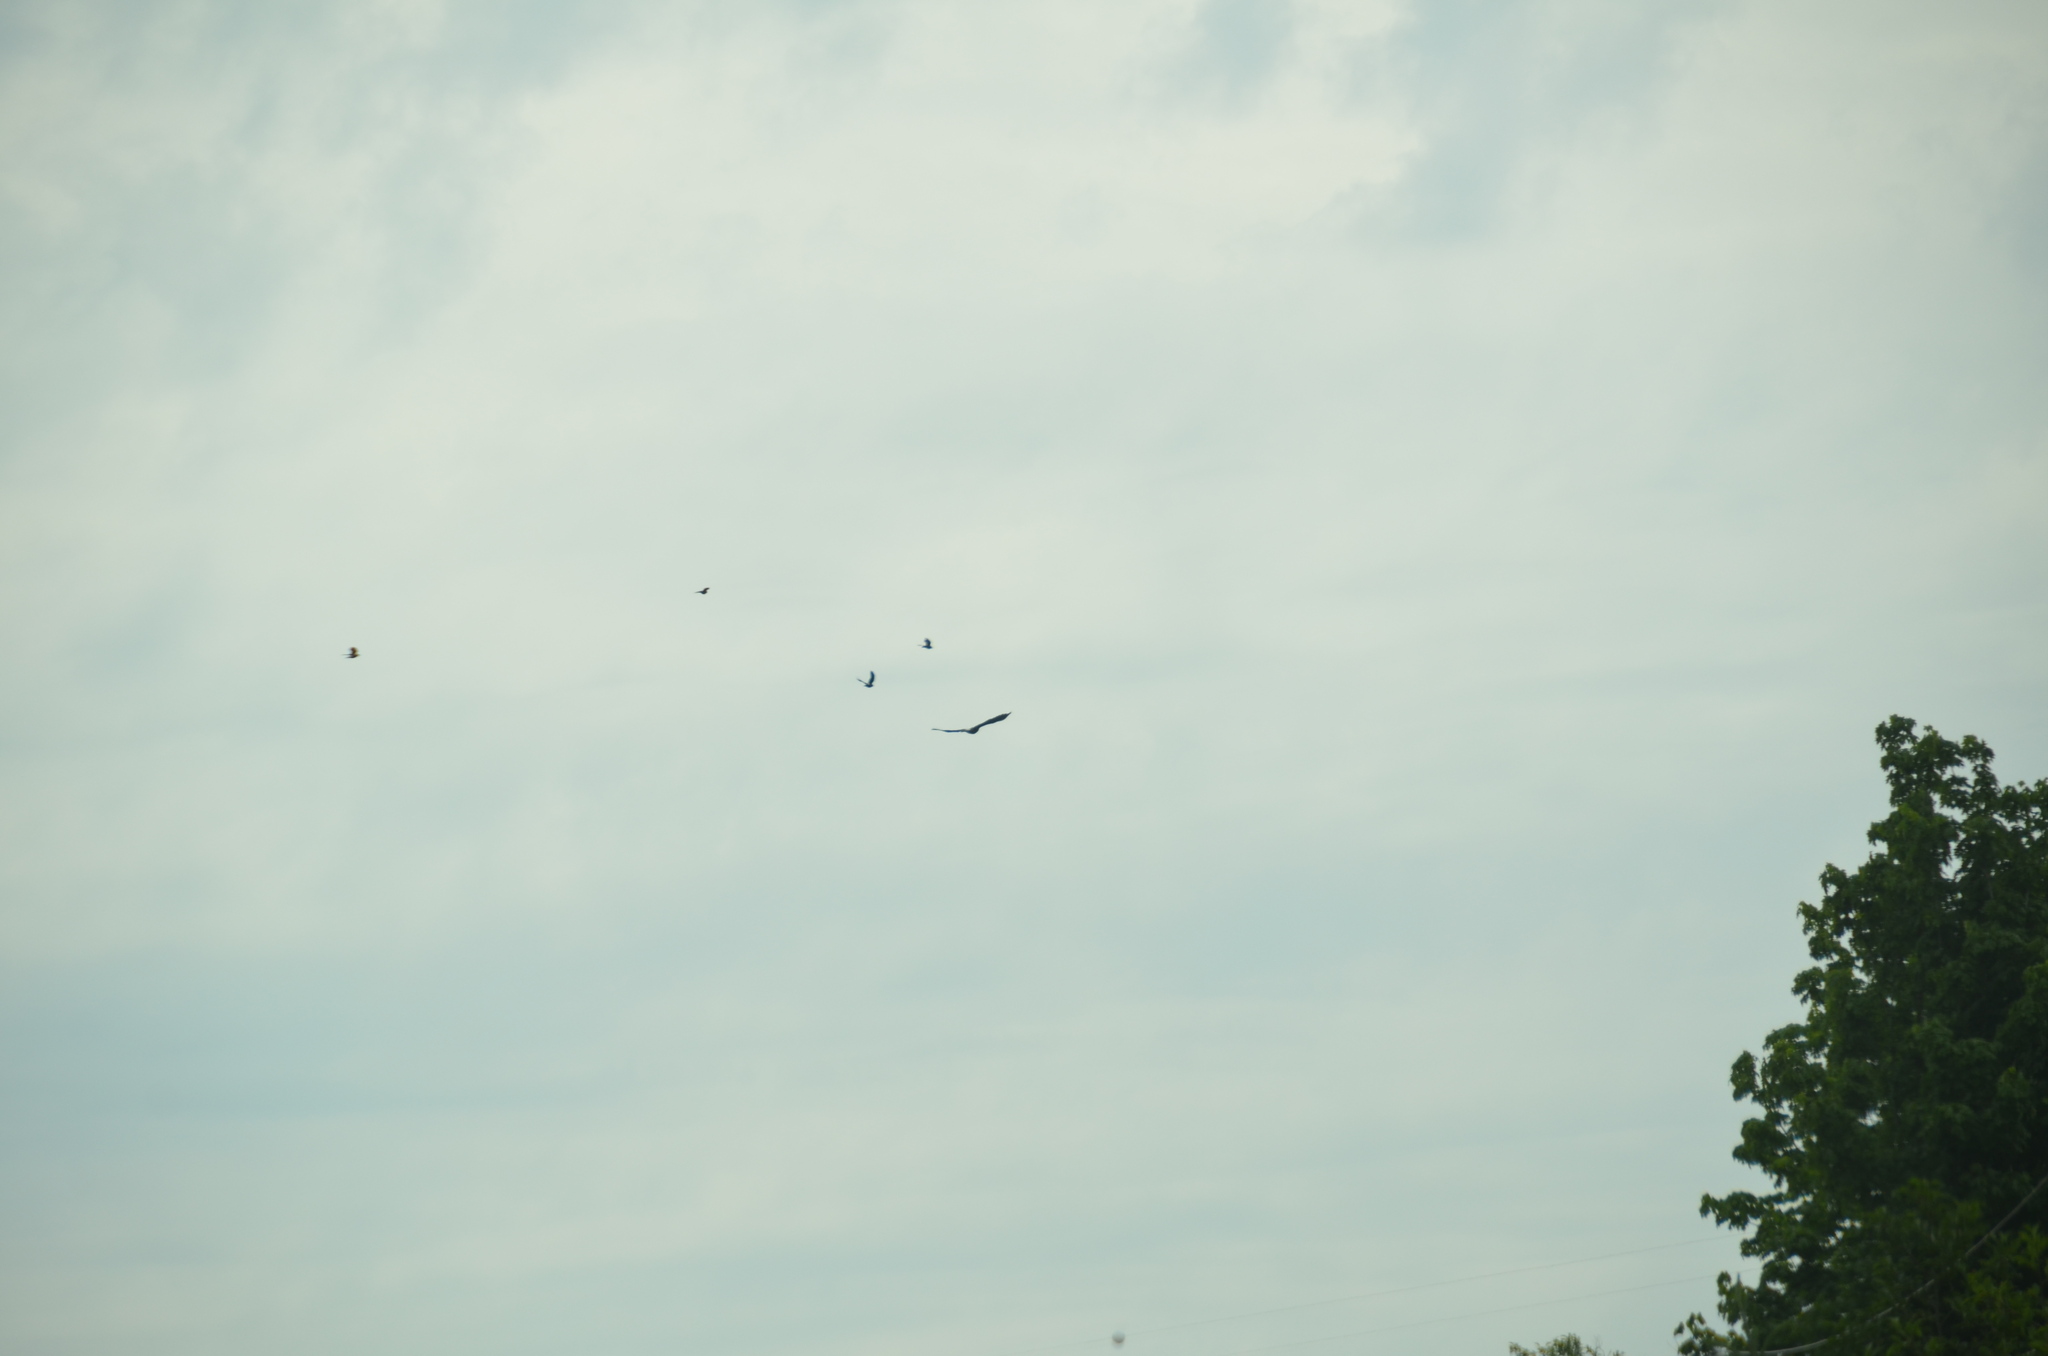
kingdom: Animalia
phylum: Chordata
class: Aves
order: Accipitriformes
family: Accipitridae
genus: Haliaeetus
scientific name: Haliaeetus leucocephalus
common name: Bald eagle
